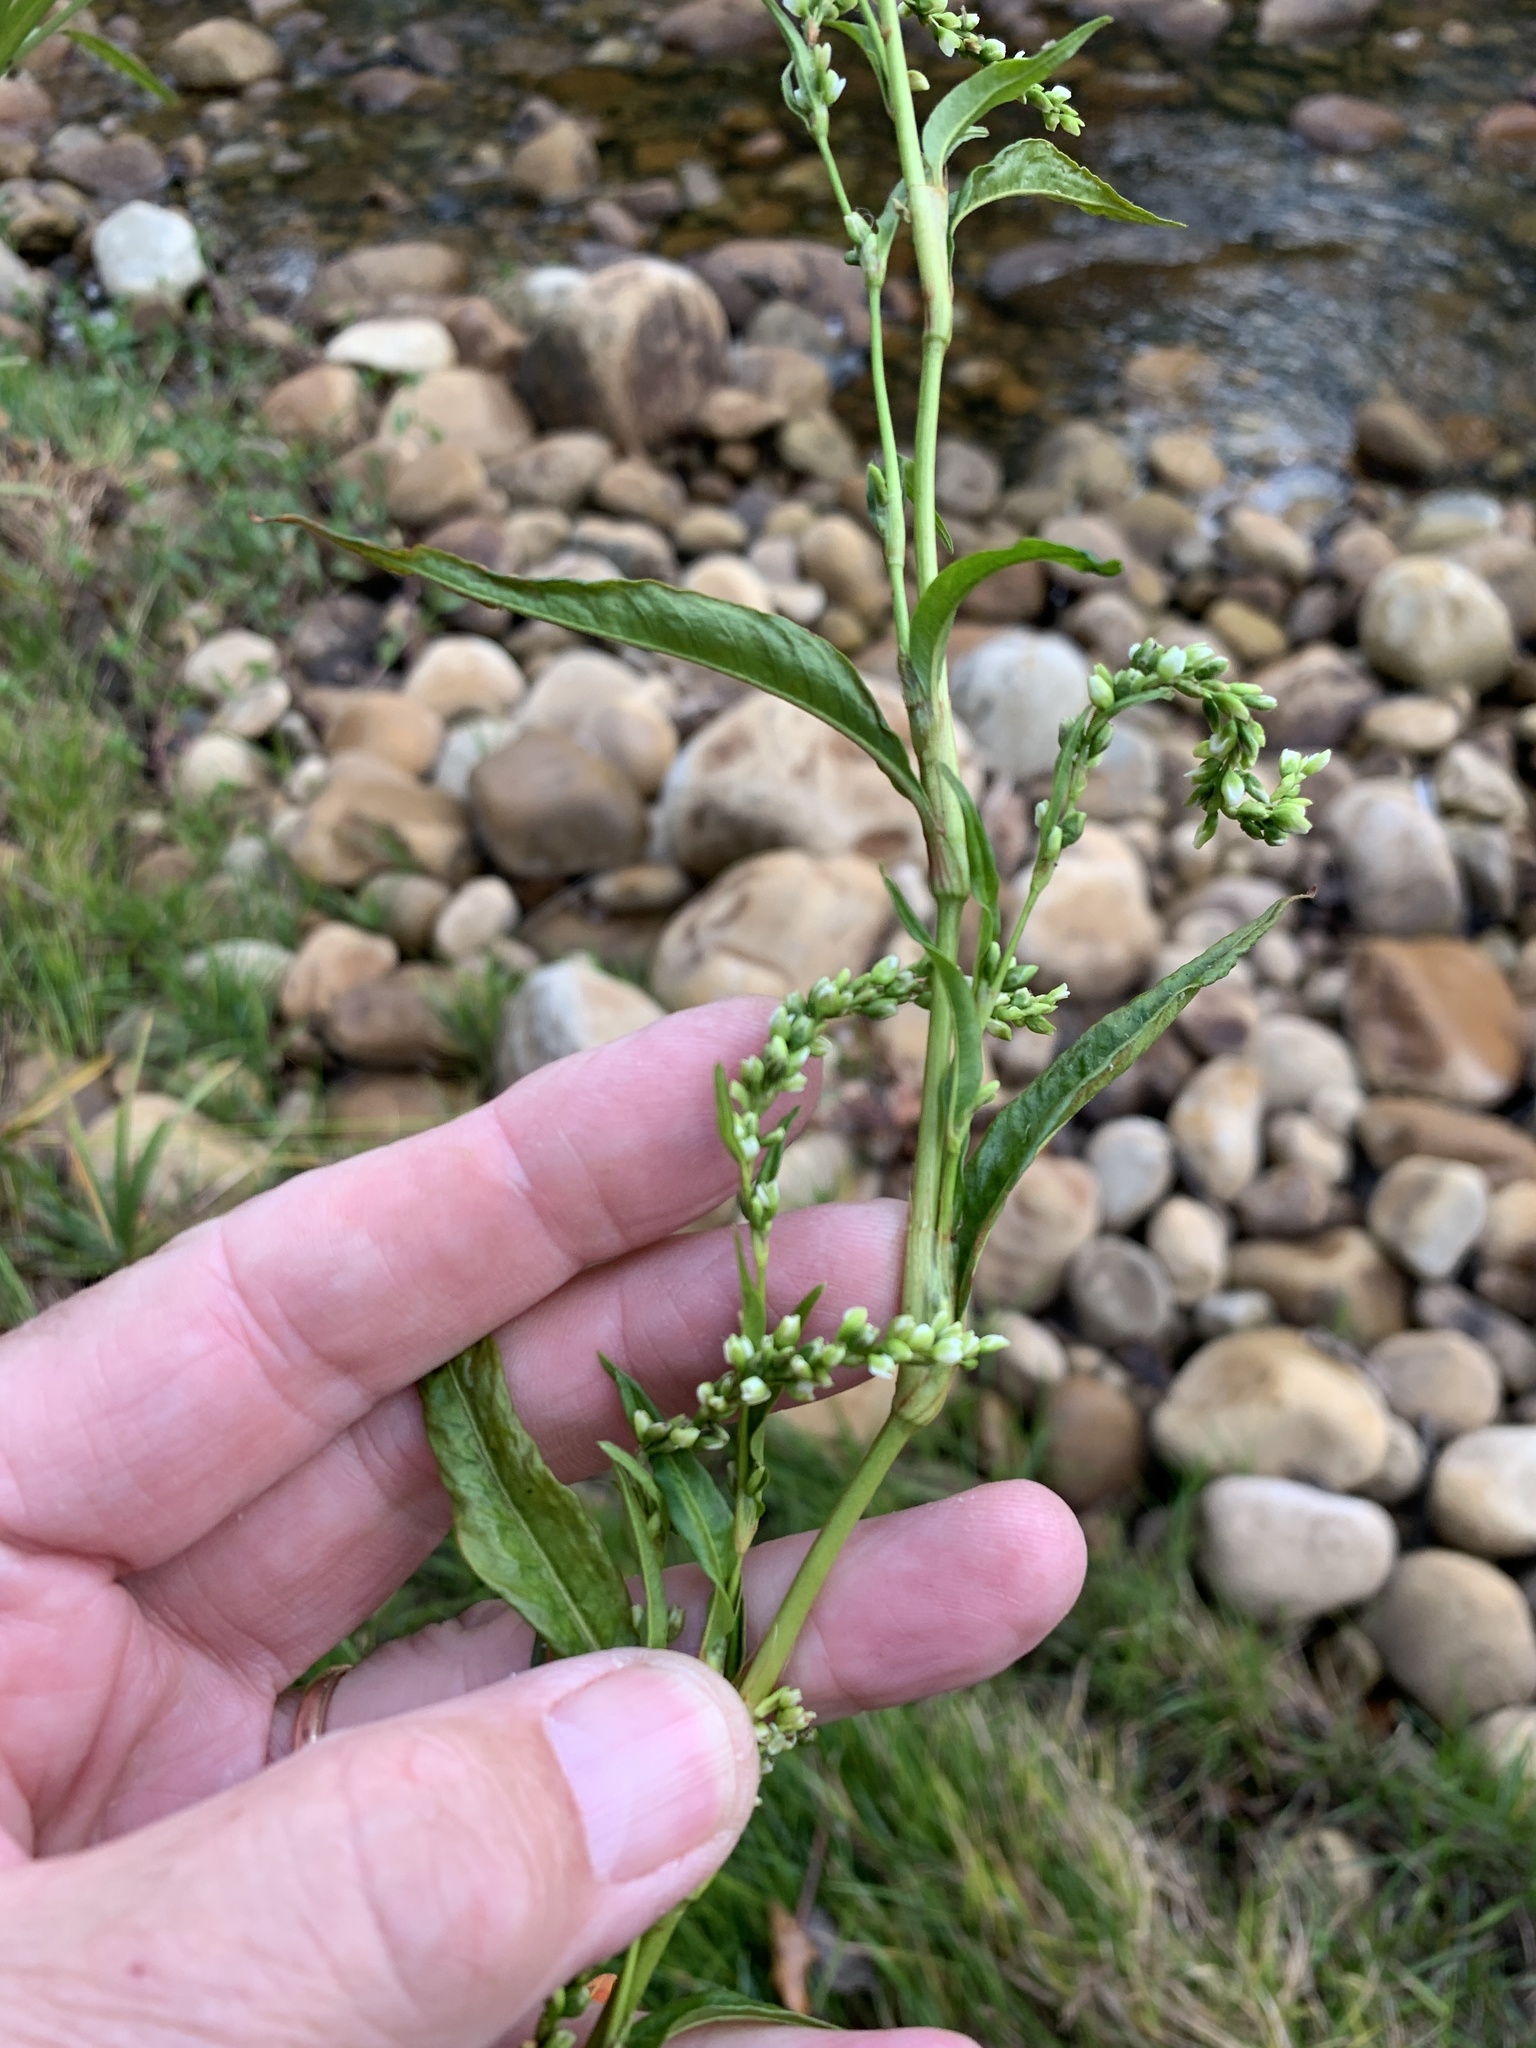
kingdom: Plantae
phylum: Tracheophyta
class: Magnoliopsida
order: Caryophyllales
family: Polygonaceae
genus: Persicaria
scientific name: Persicaria hydropiper
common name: Water-pepper
